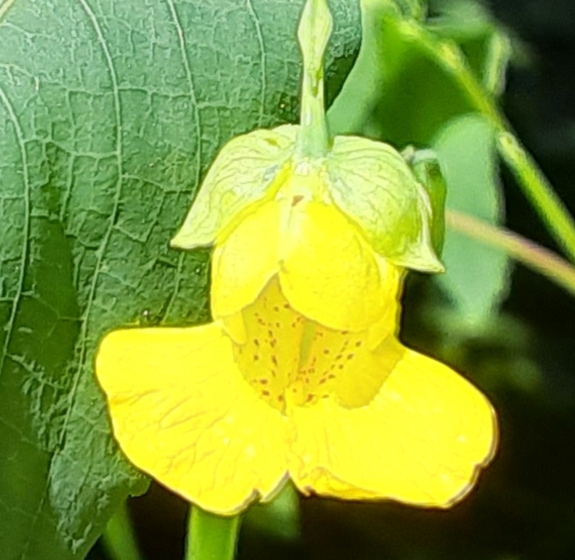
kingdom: Plantae
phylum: Tracheophyta
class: Magnoliopsida
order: Ericales
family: Balsaminaceae
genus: Impatiens
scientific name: Impatiens pallida
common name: Pale snapweed
